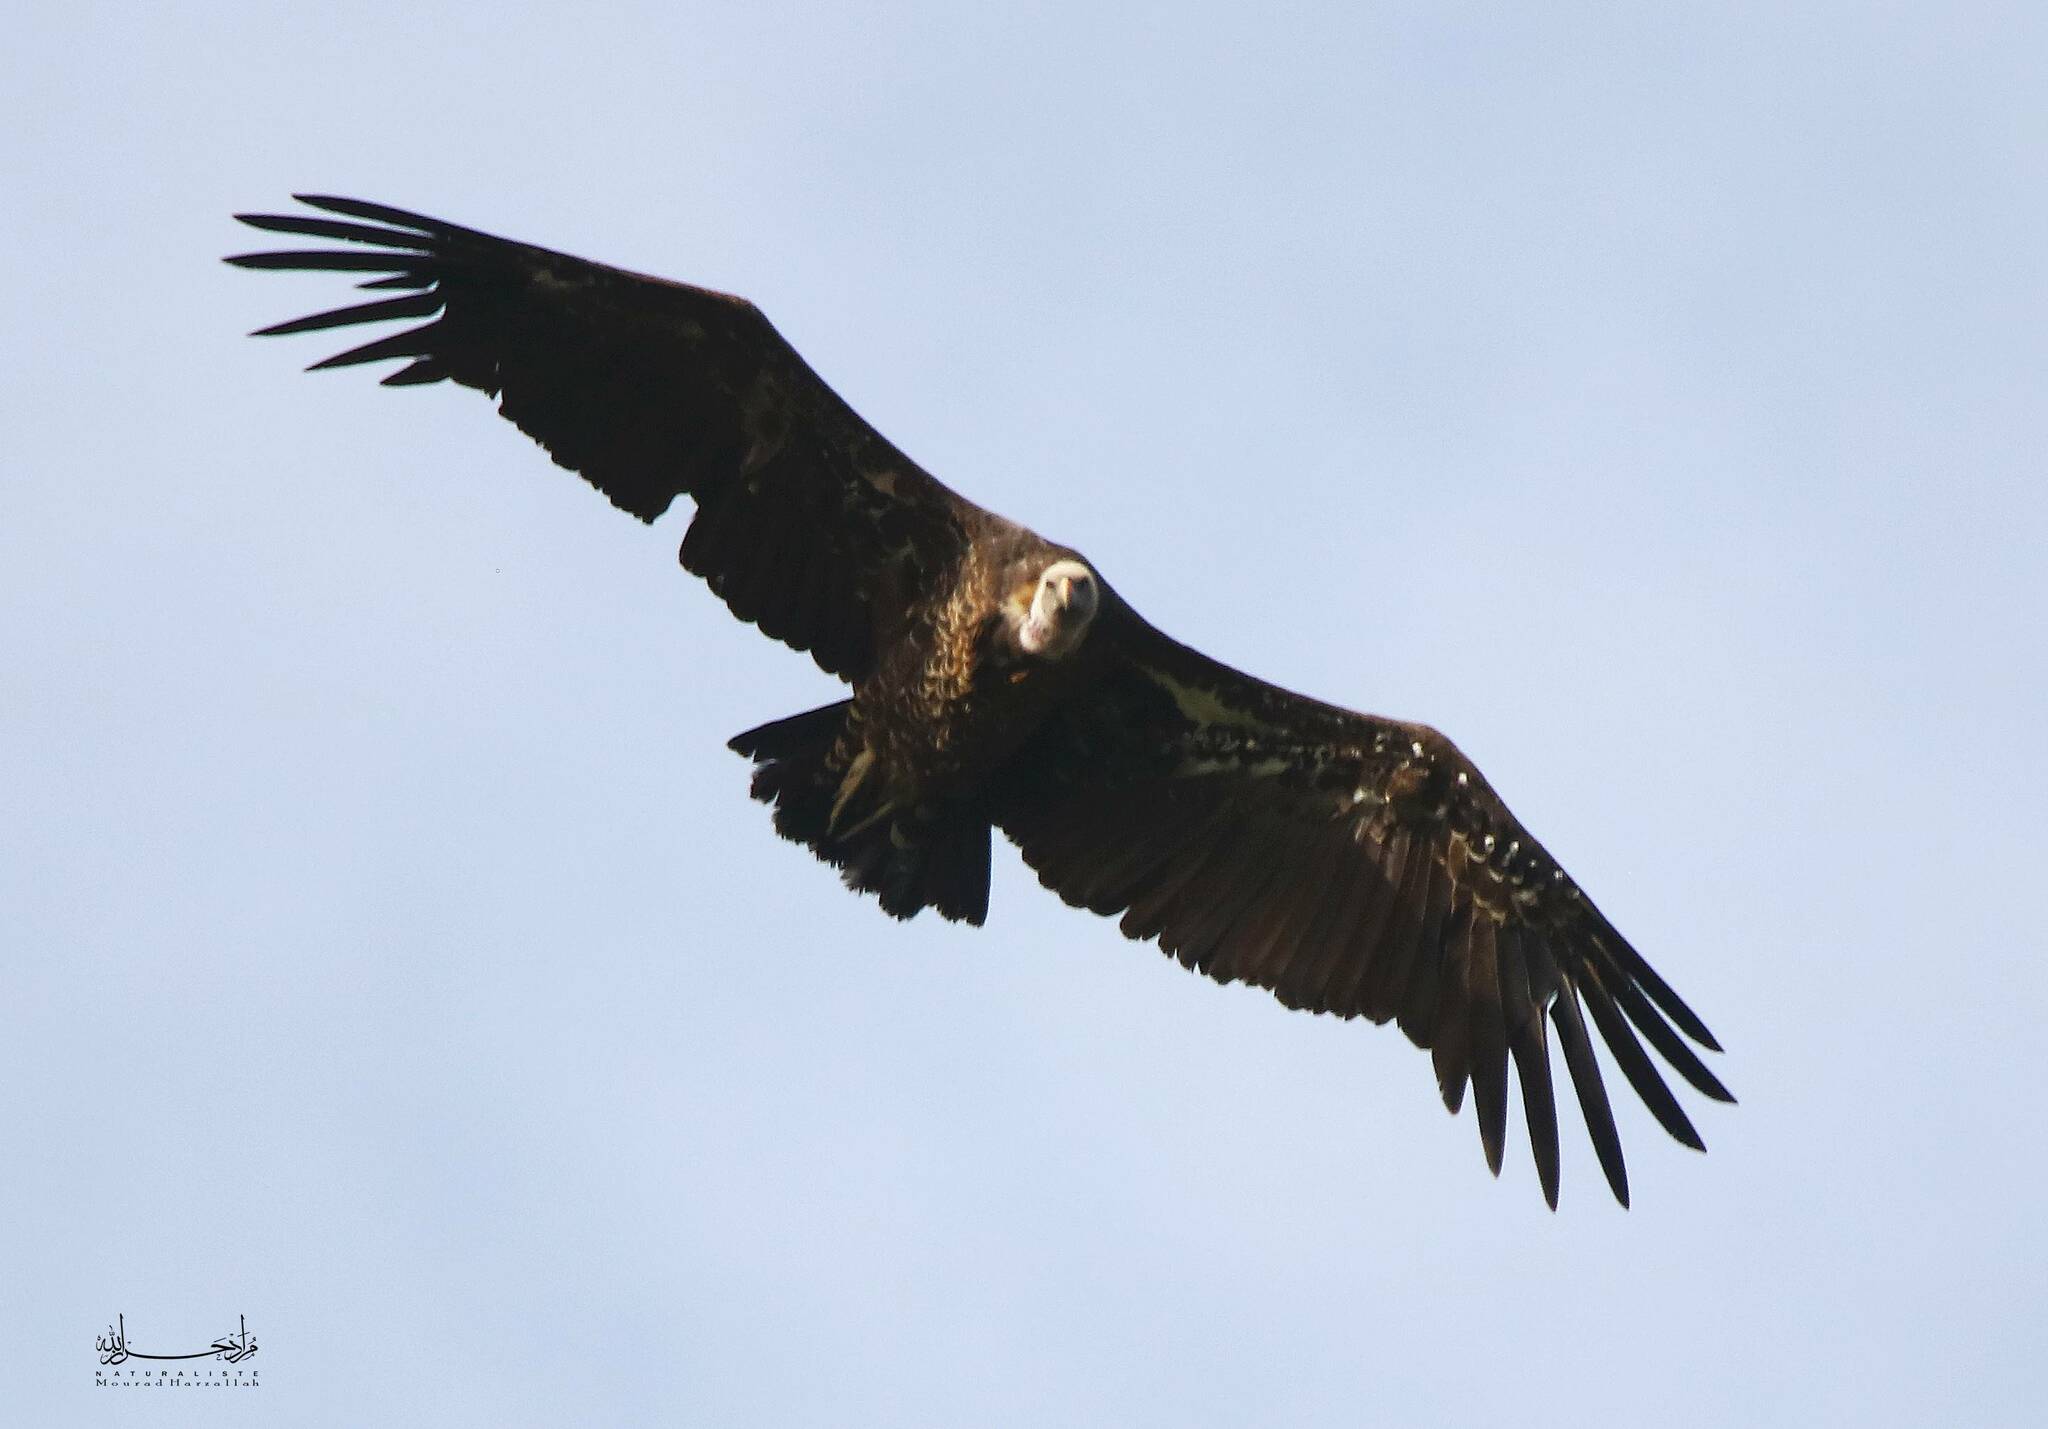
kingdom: Animalia
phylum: Chordata
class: Aves
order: Accipitriformes
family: Accipitridae
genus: Gyps
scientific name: Gyps rueppellii
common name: Rüppell's vulture
